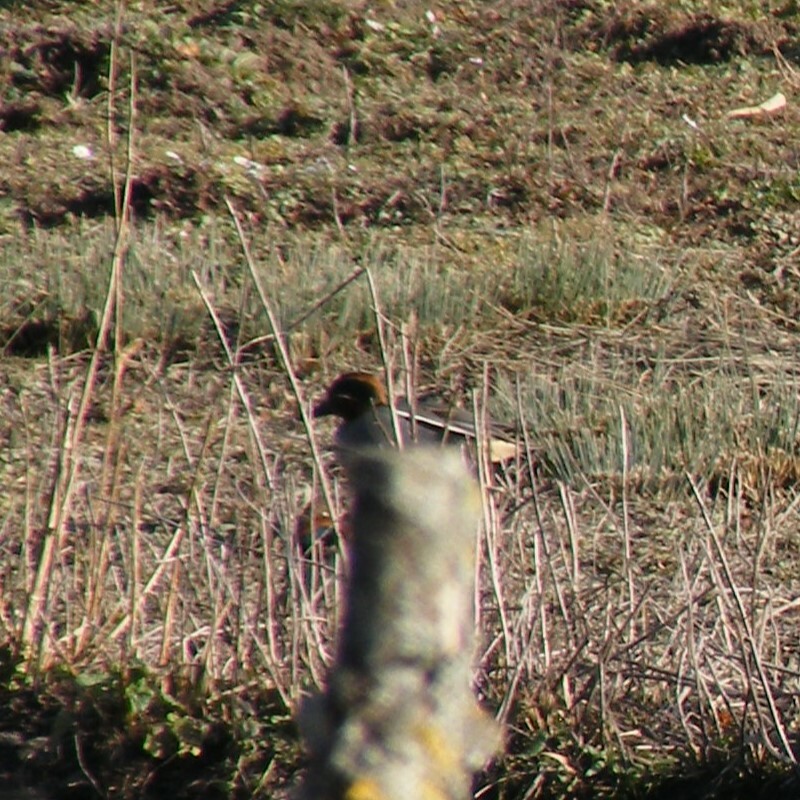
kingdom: Animalia
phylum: Chordata
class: Aves
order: Anseriformes
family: Anatidae
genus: Anas
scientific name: Anas crecca
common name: Eurasian teal
